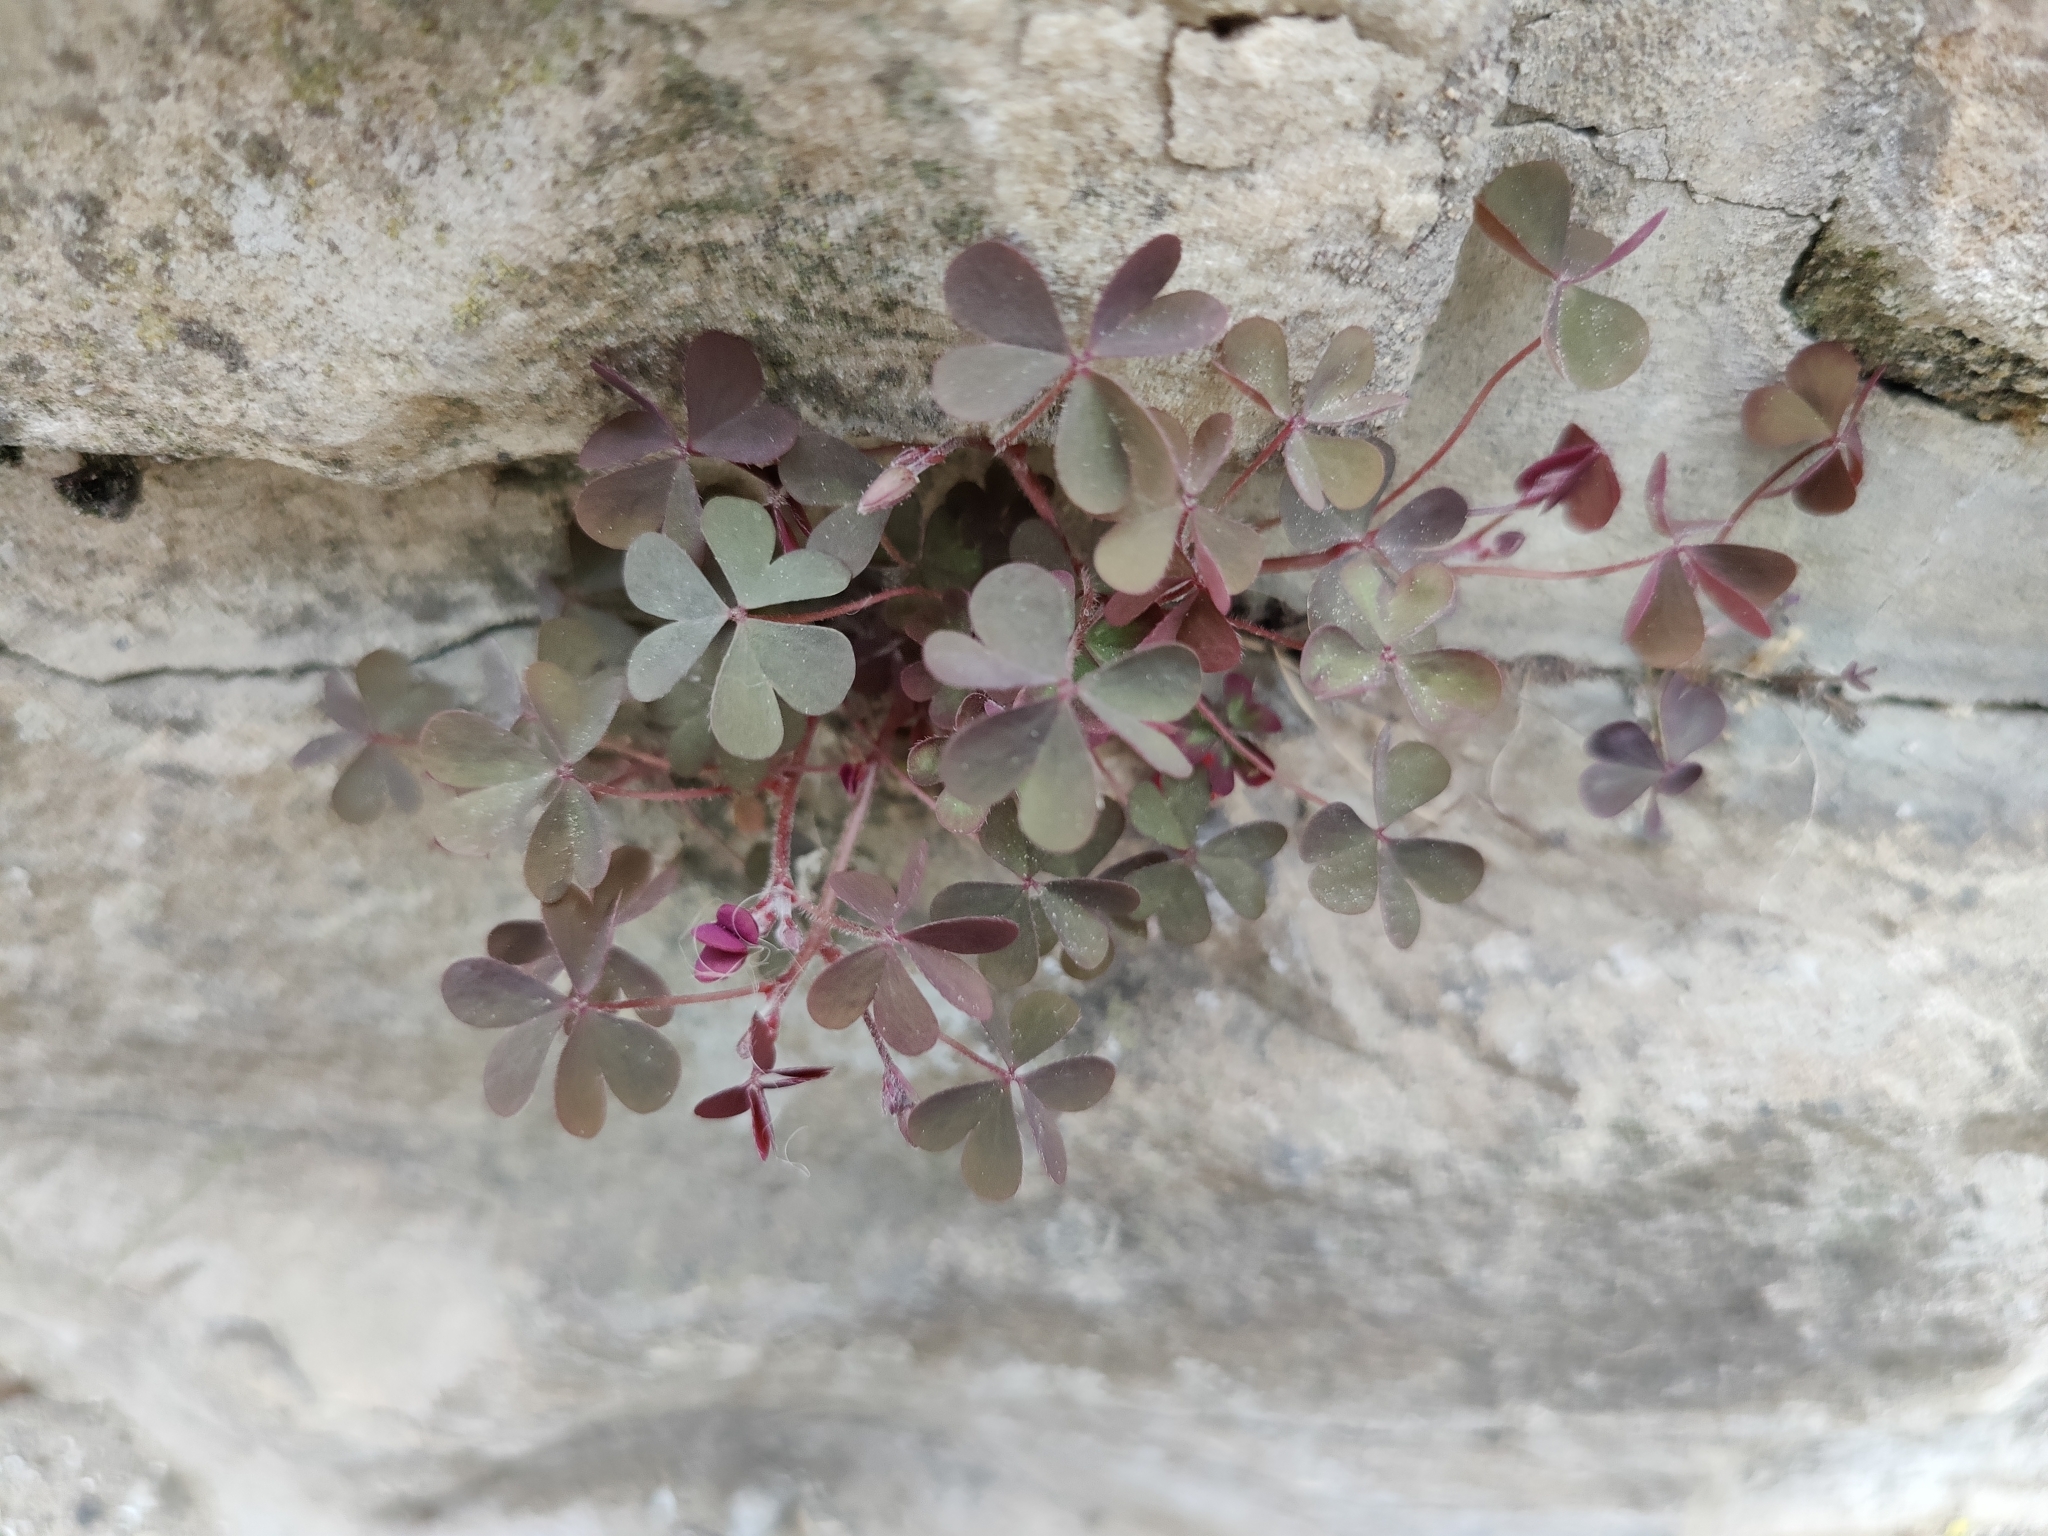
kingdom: Plantae
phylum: Tracheophyta
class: Magnoliopsida
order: Oxalidales
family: Oxalidaceae
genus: Oxalis
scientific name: Oxalis corniculata
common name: Procumbent yellow-sorrel
